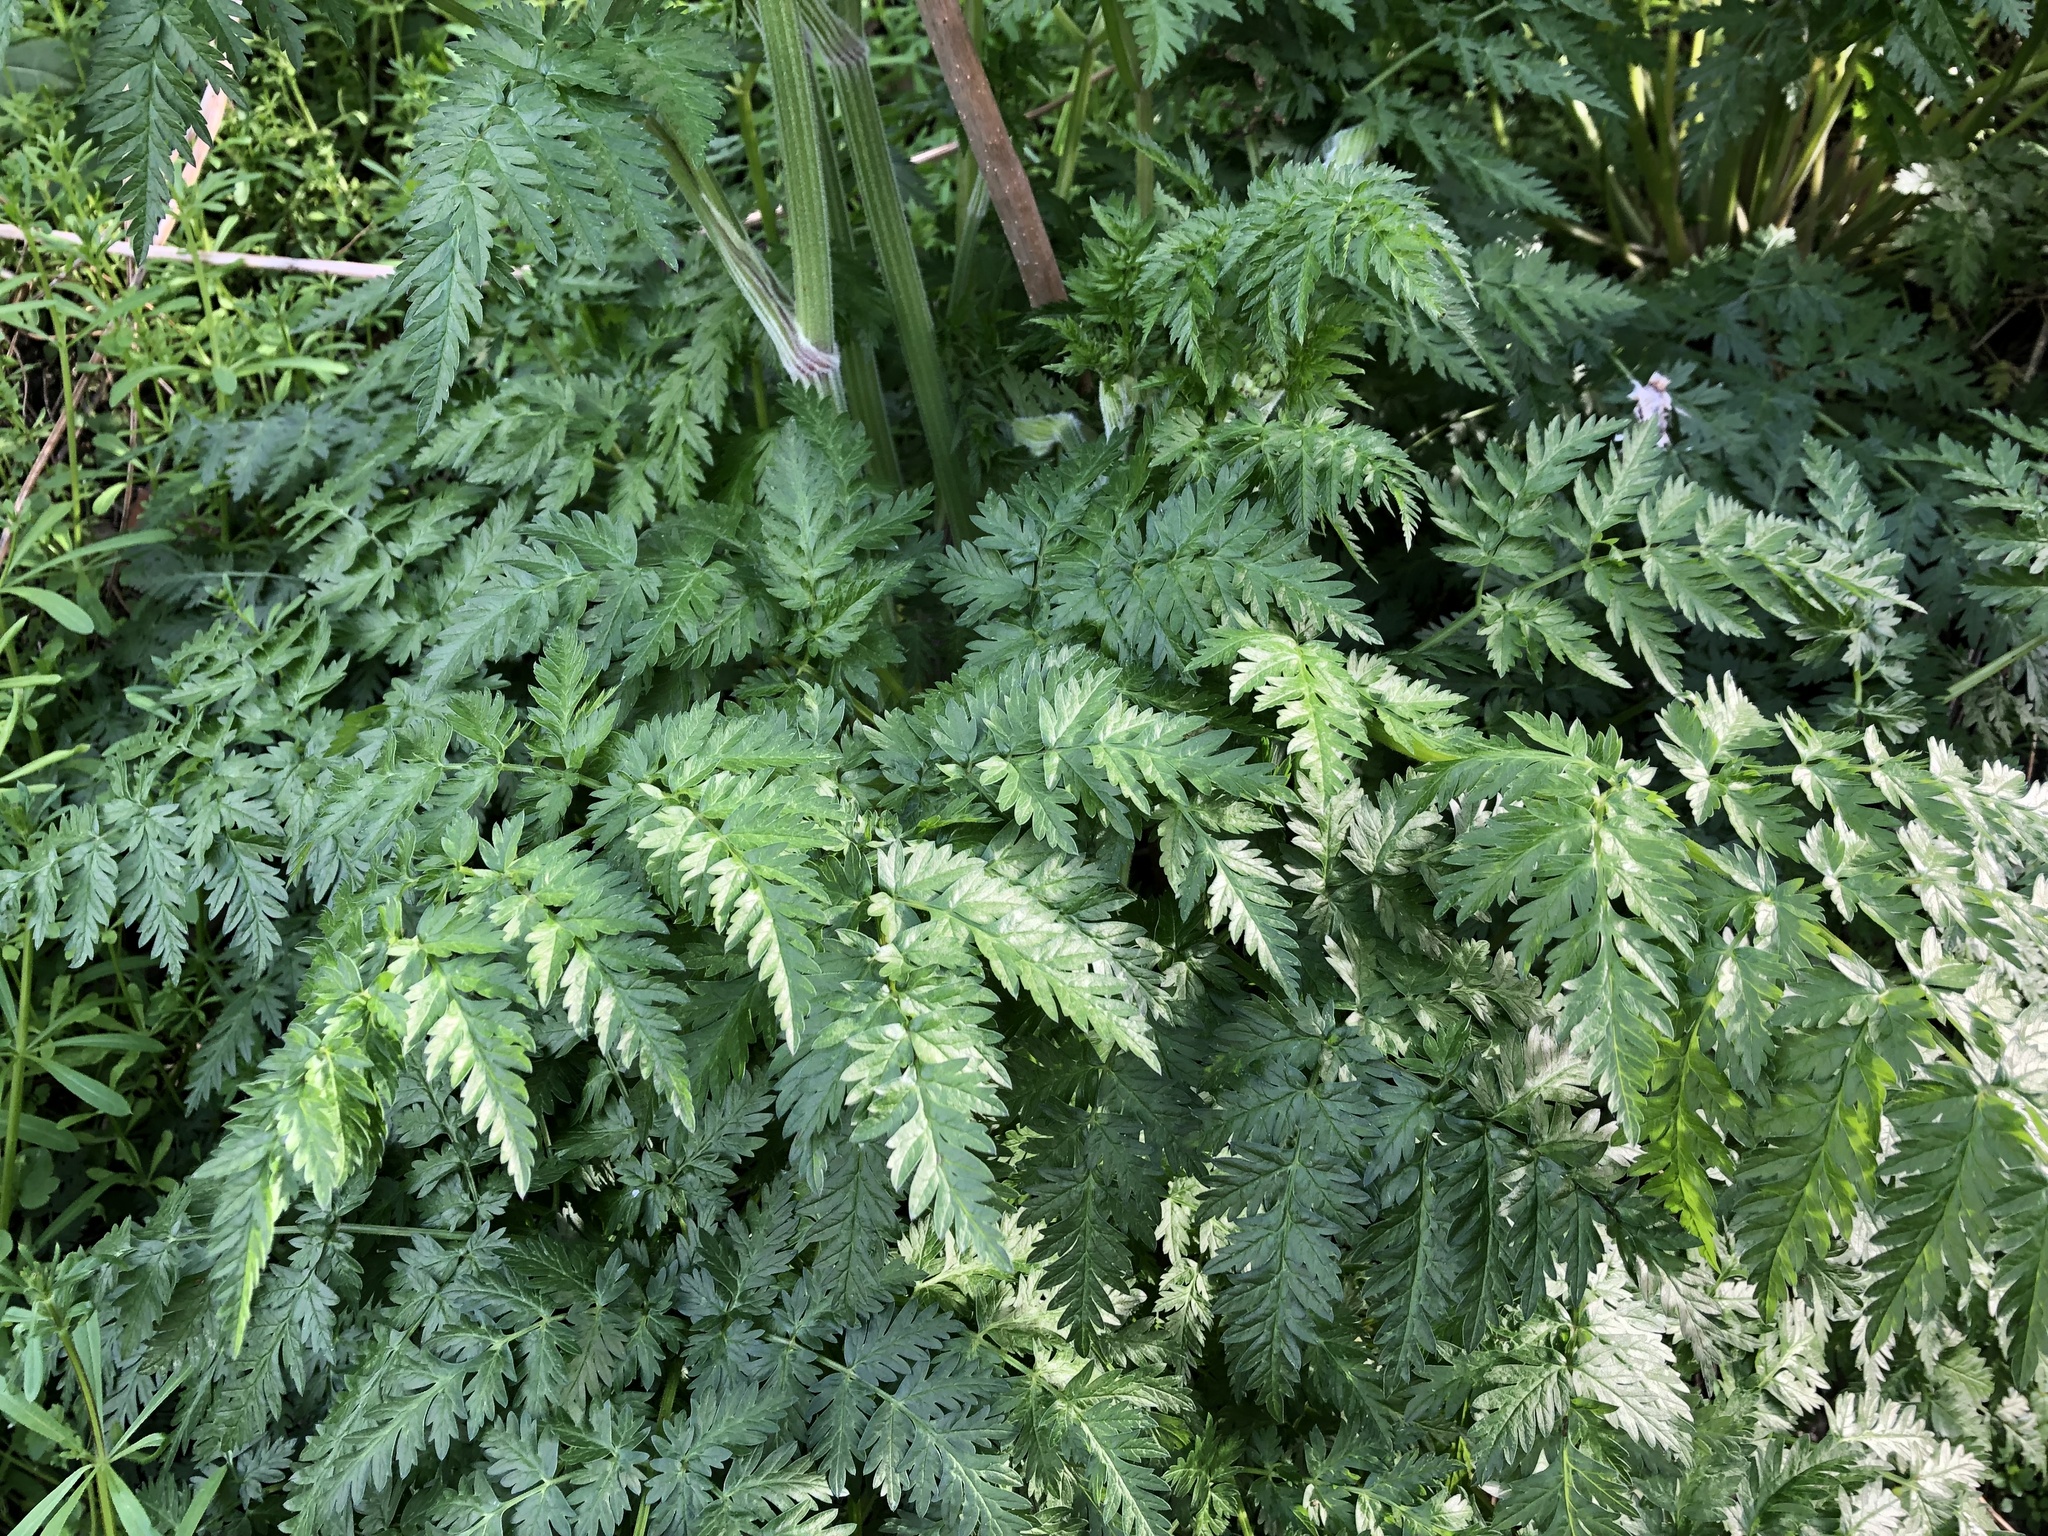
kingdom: Plantae
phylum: Tracheophyta
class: Magnoliopsida
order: Apiales
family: Apiaceae
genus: Anthriscus
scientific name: Anthriscus sylvestris
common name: Cow parsley
